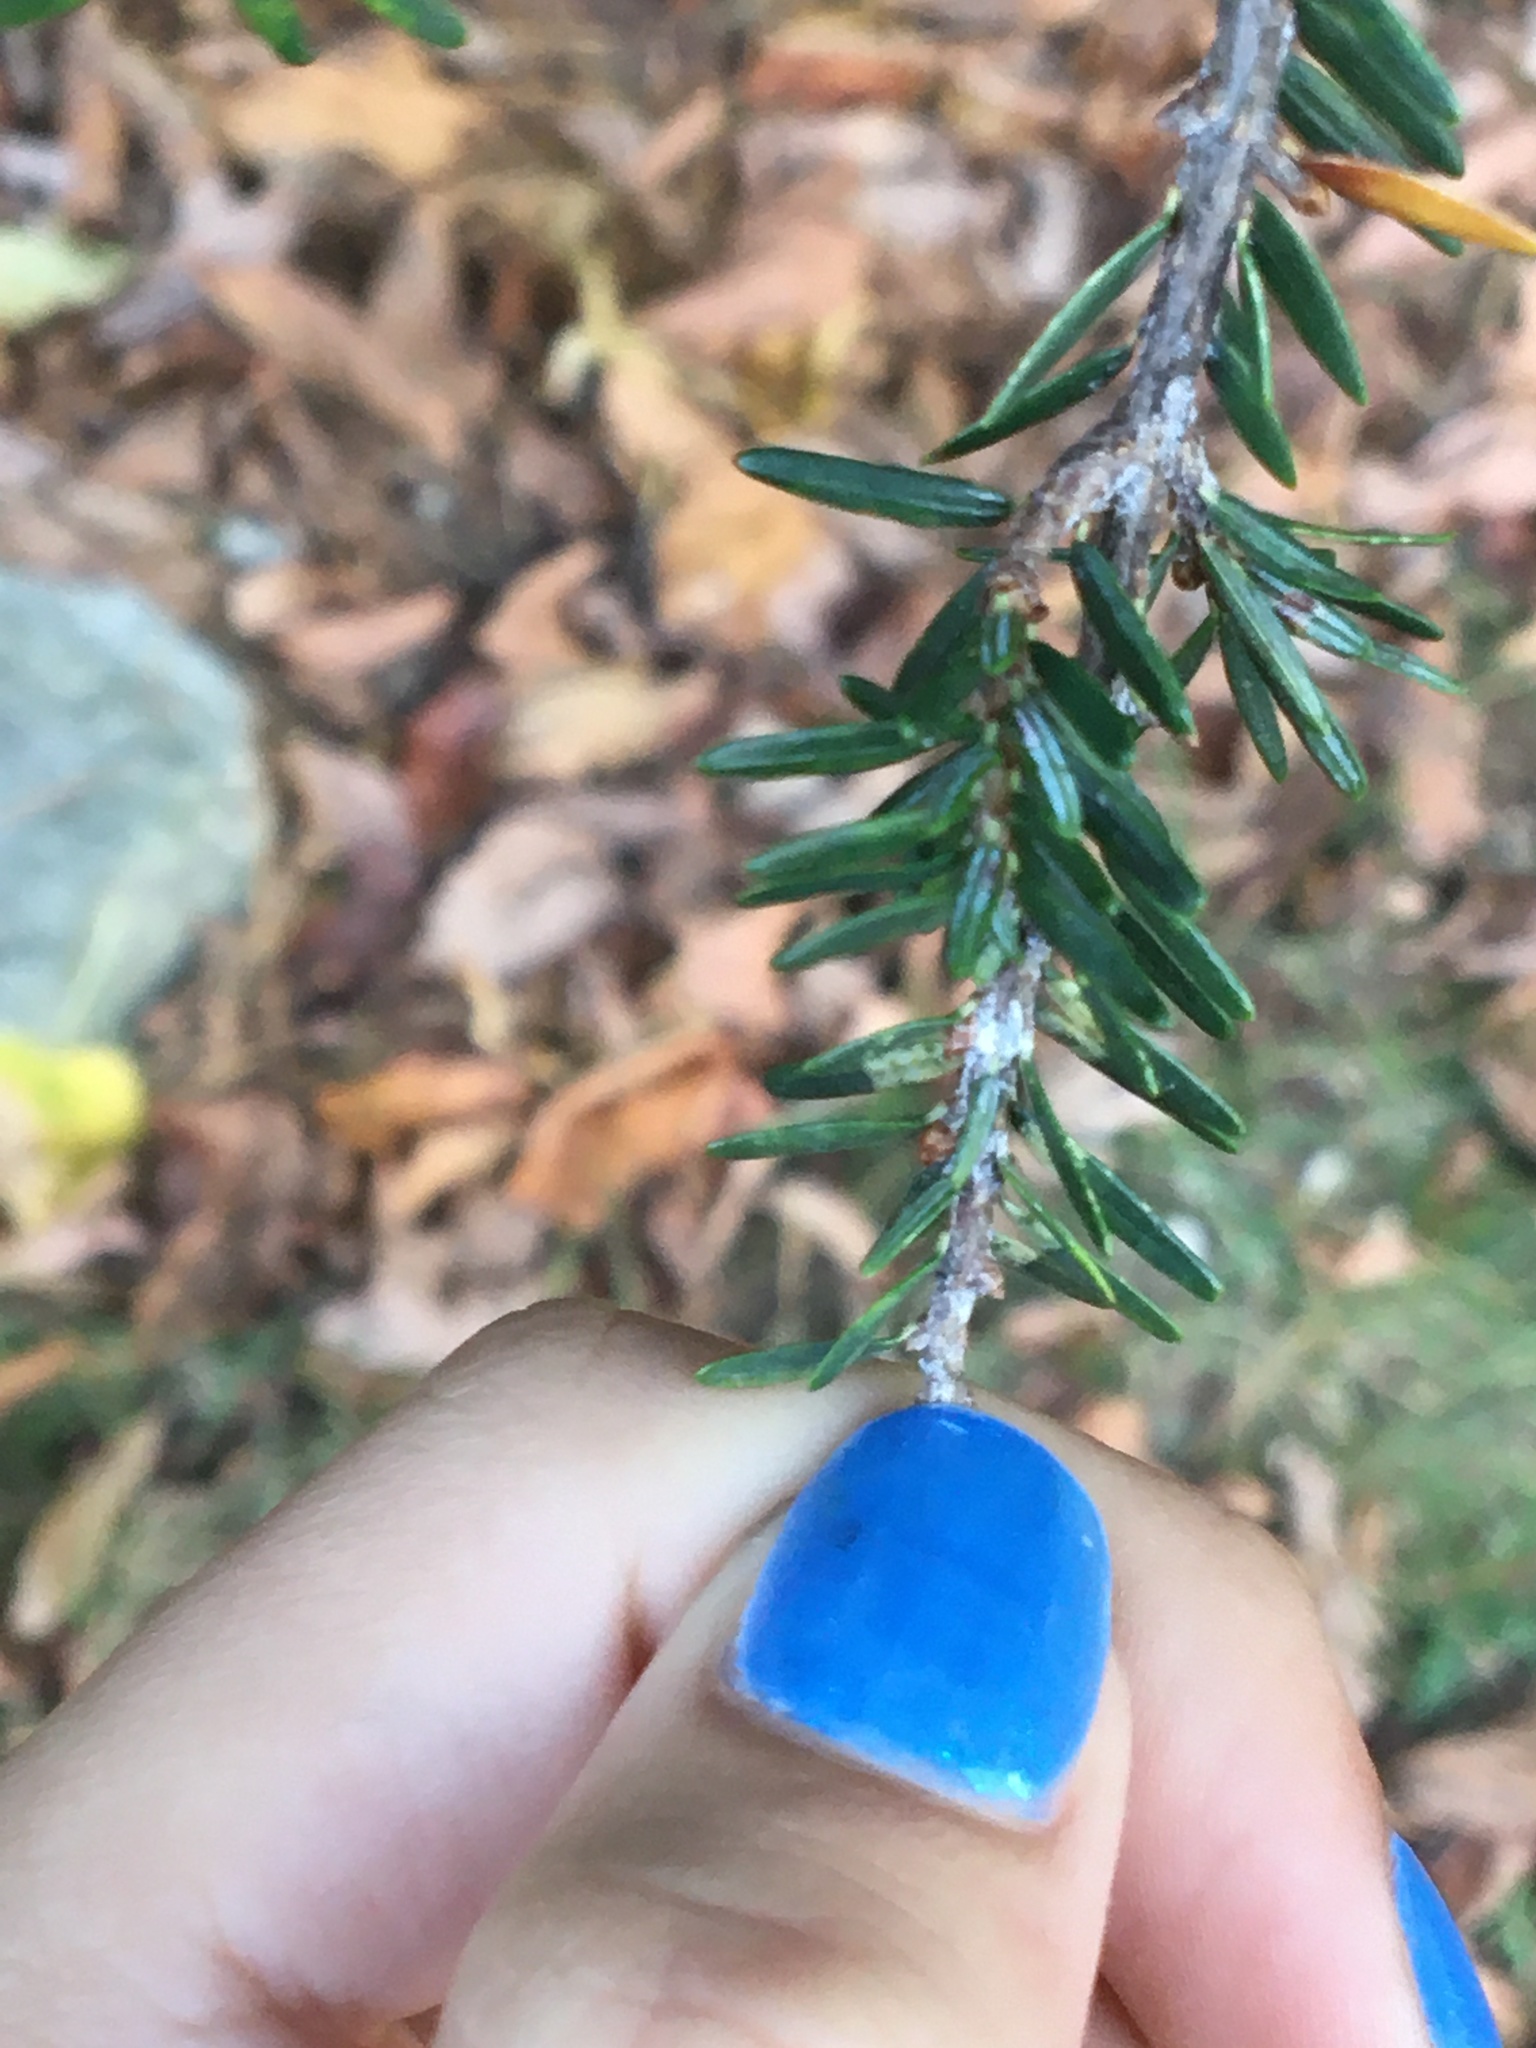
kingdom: Animalia
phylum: Arthropoda
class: Insecta
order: Hemiptera
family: Adelgidae
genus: Adelges
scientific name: Adelges tsugae
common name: Hemlock woolly adelgid
